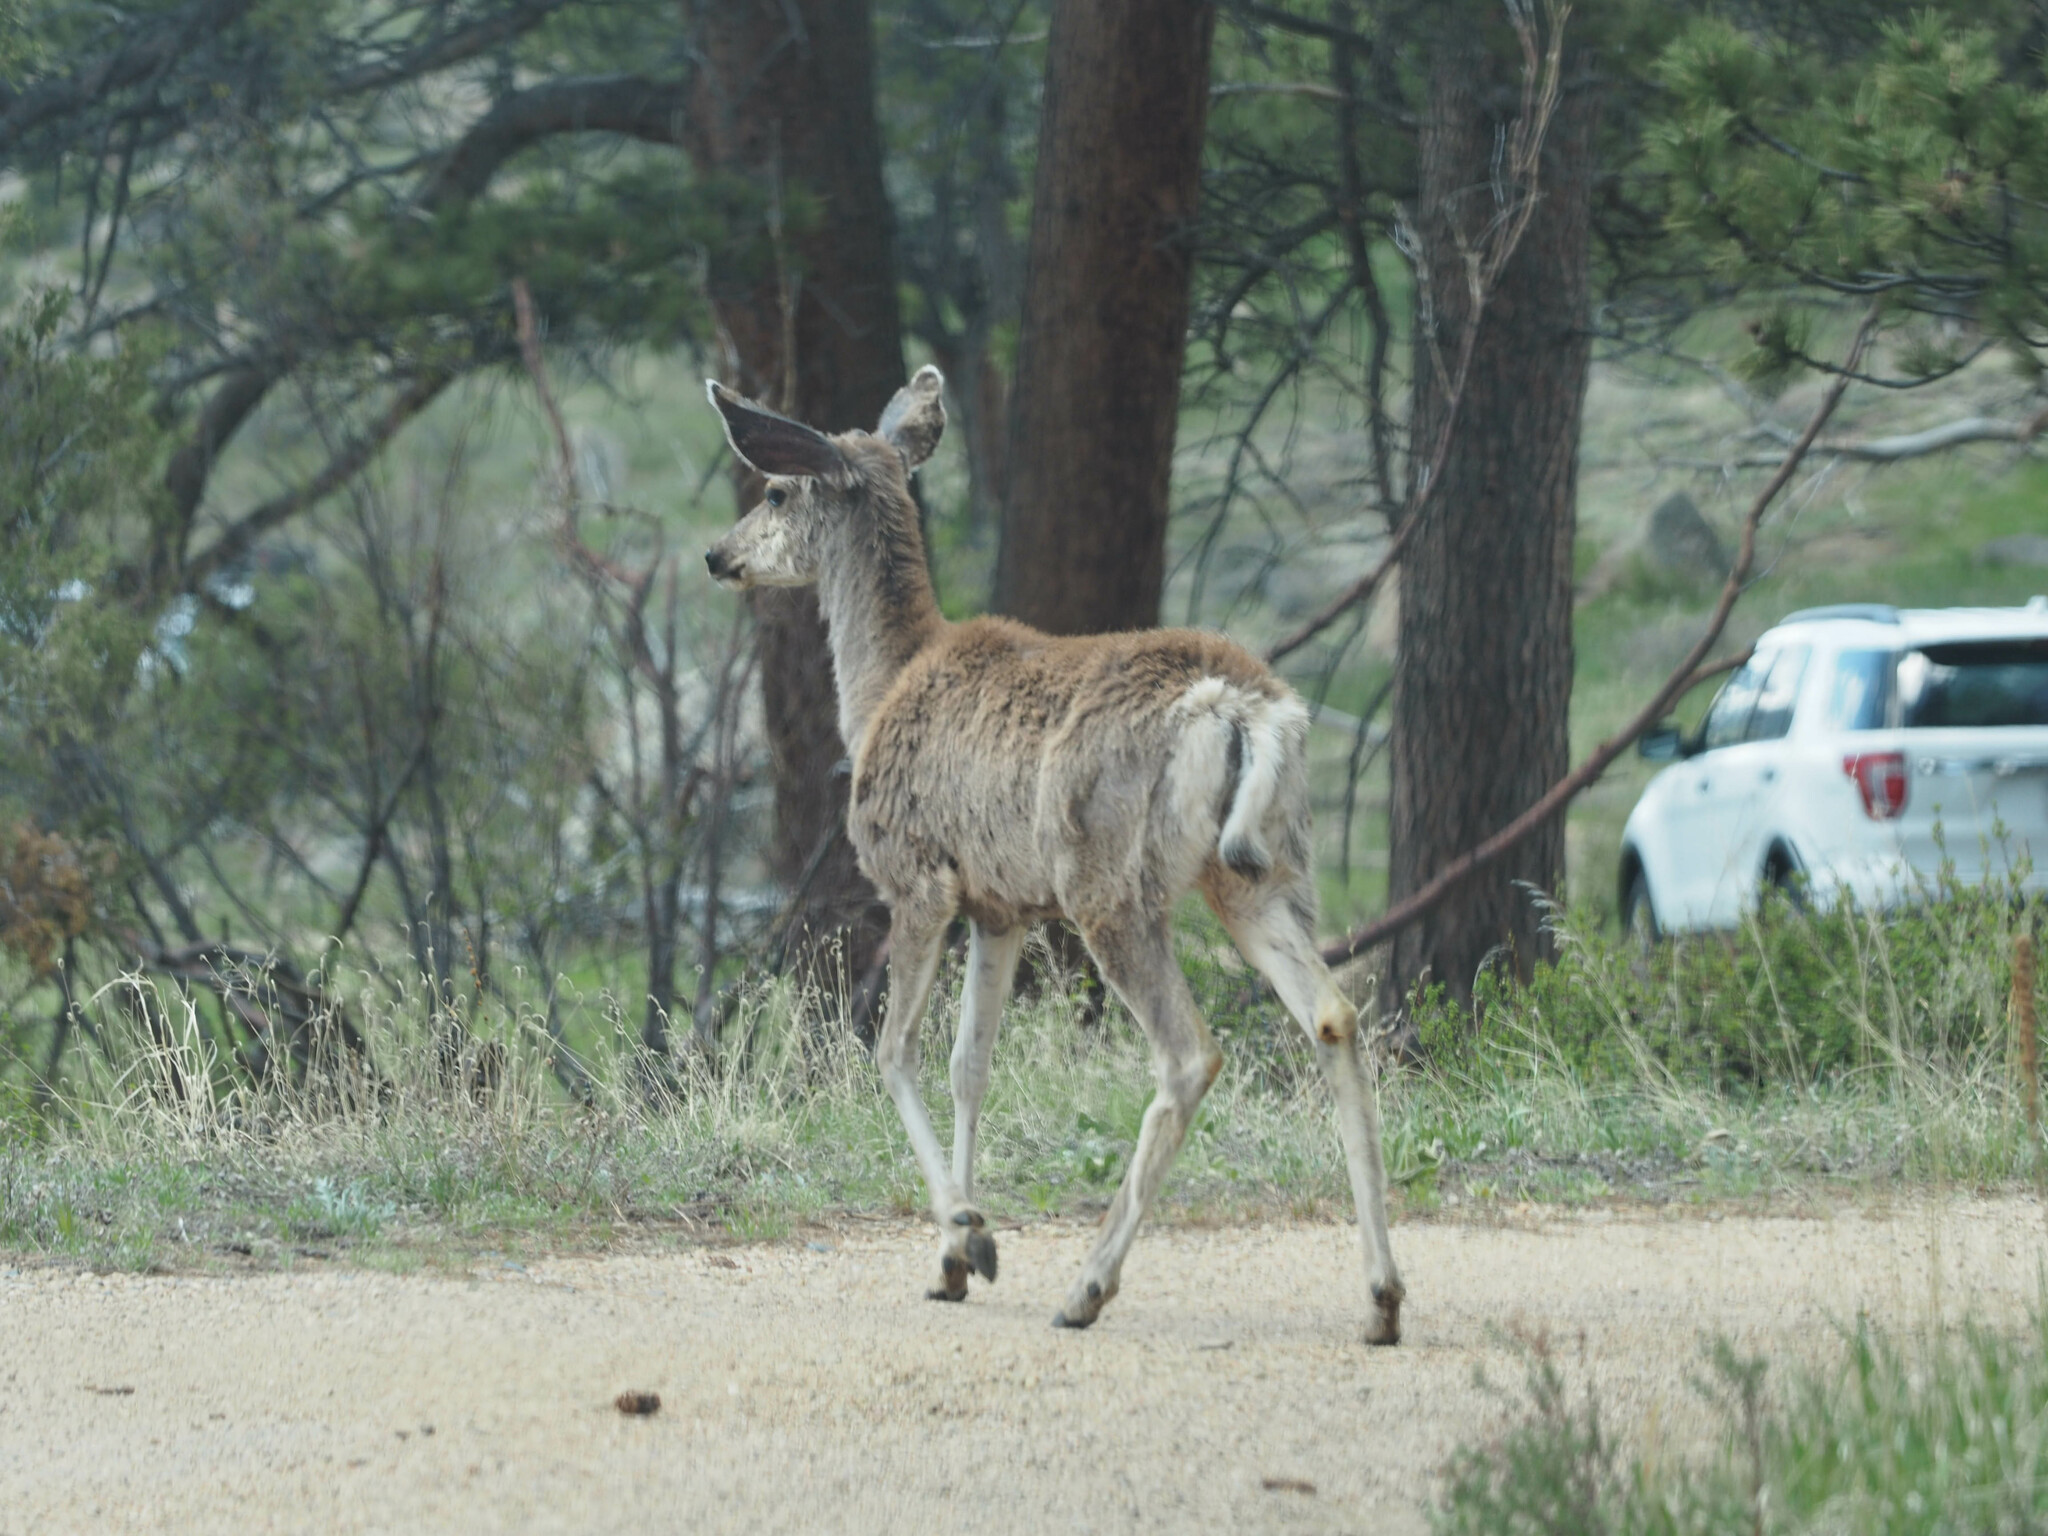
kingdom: Animalia
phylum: Chordata
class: Mammalia
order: Artiodactyla
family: Cervidae
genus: Odocoileus
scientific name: Odocoileus hemionus
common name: Mule deer
